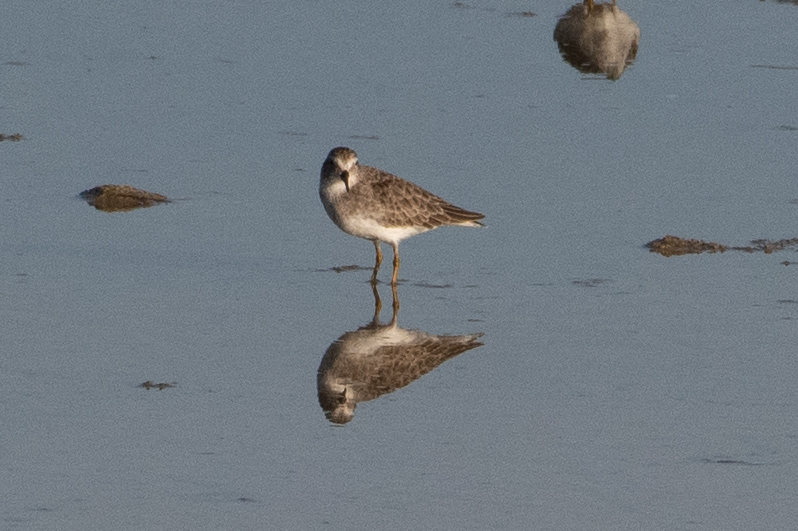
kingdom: Animalia
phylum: Chordata
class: Aves
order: Charadriiformes
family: Scolopacidae
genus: Calidris
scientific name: Calidris minutilla
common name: Least sandpiper
